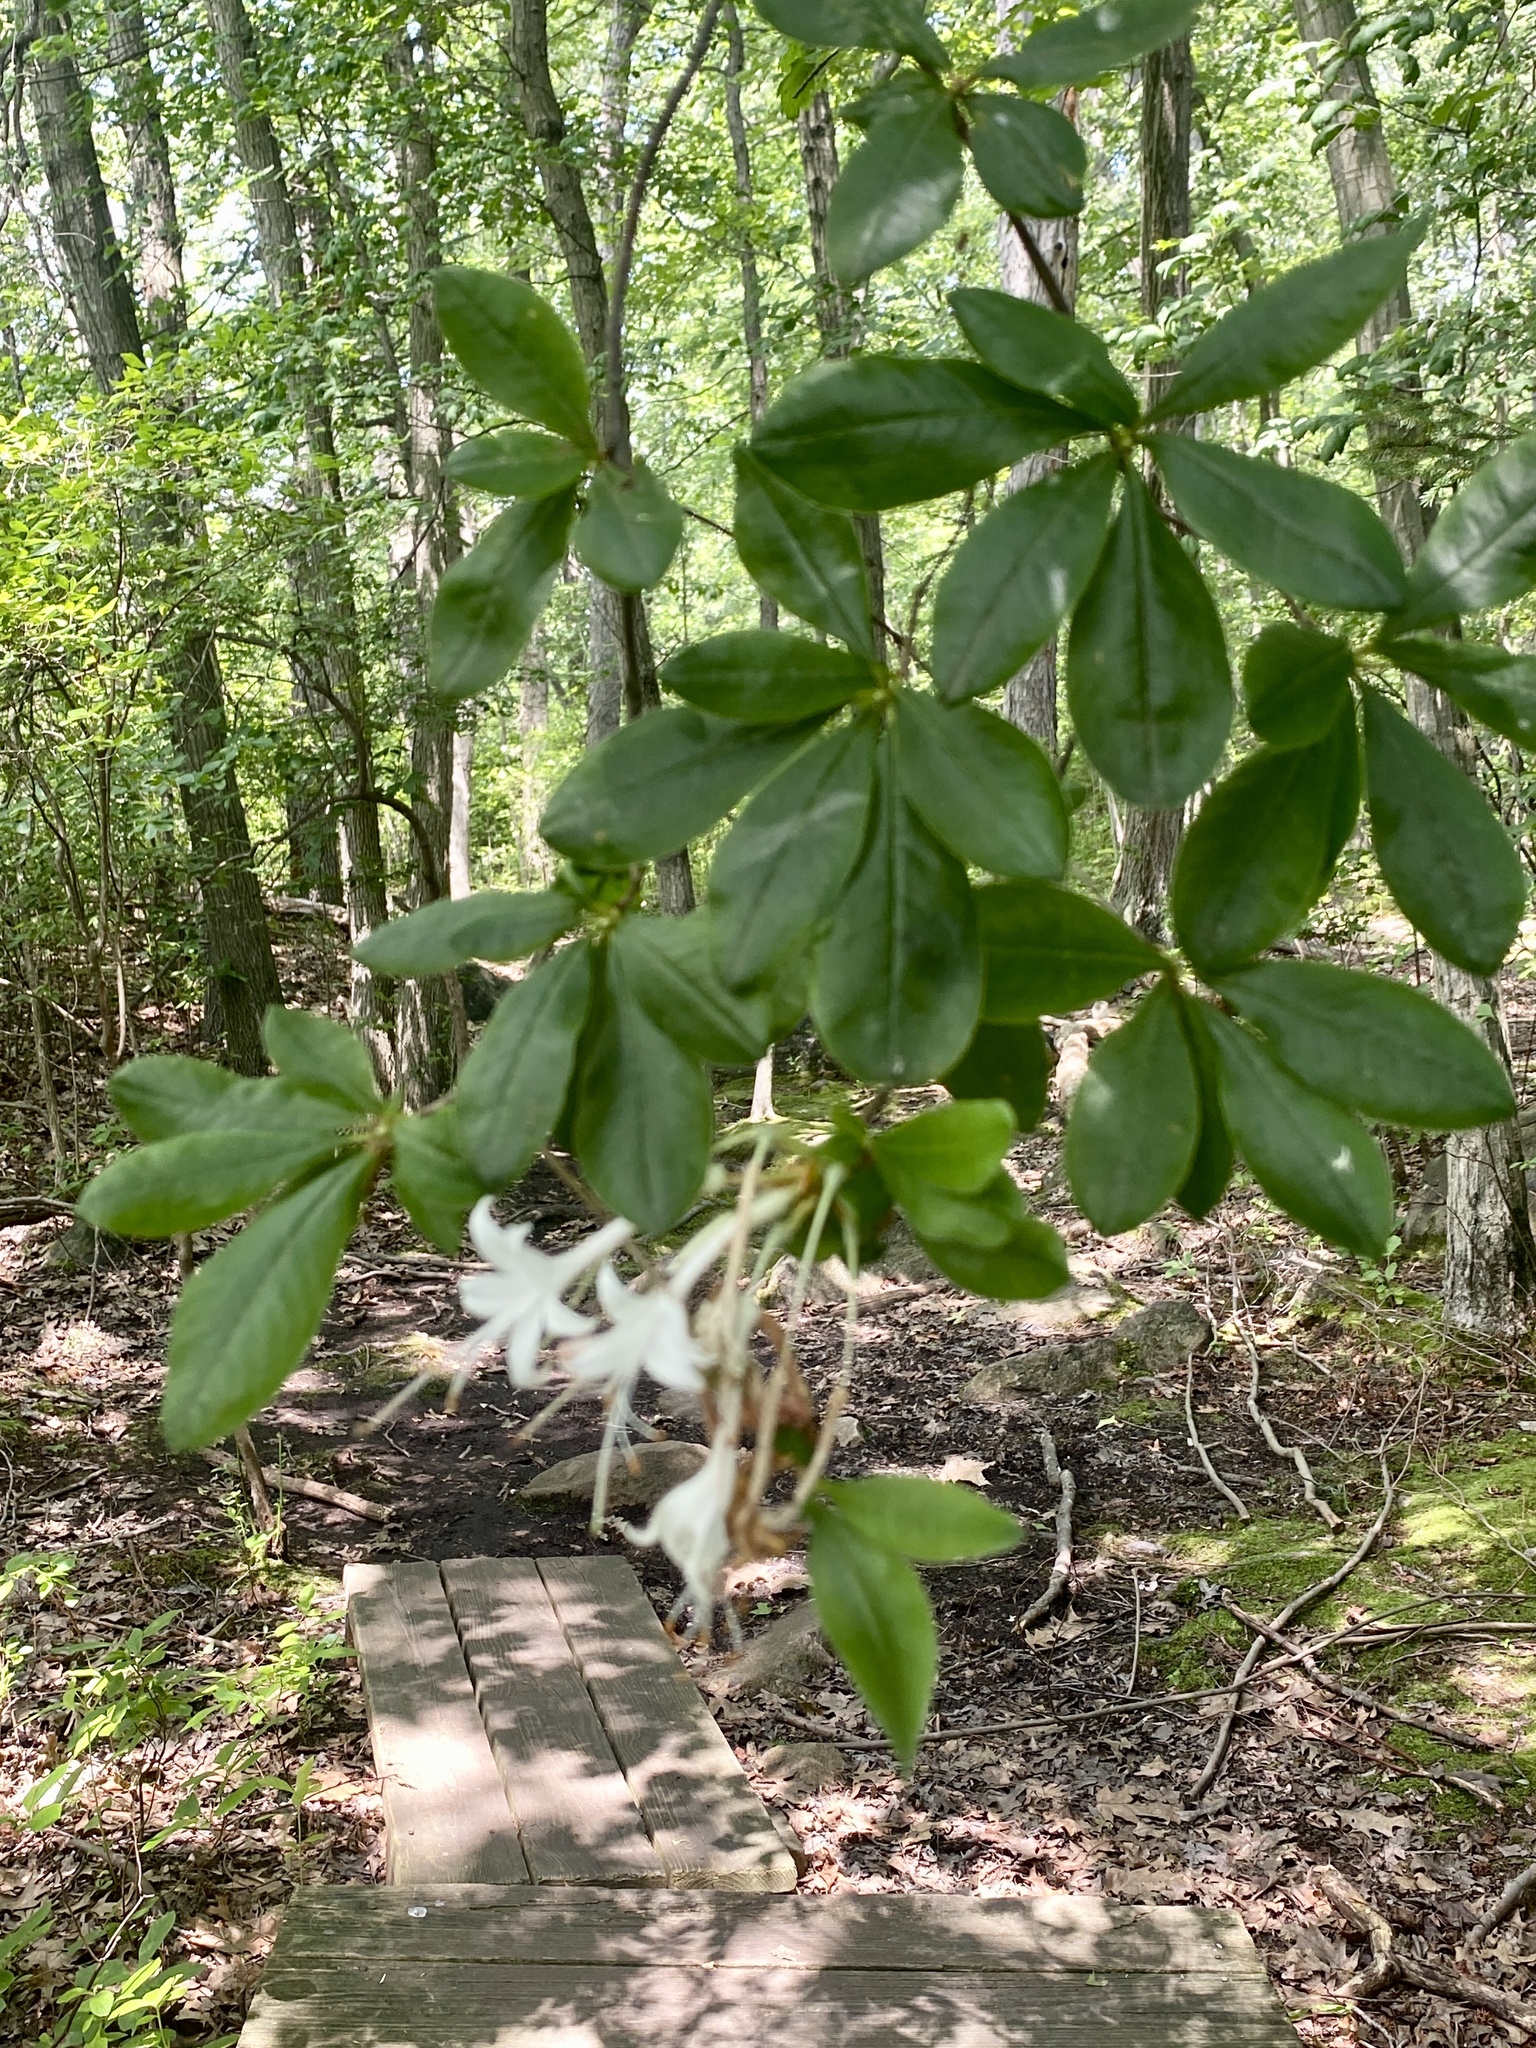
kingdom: Plantae
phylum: Tracheophyta
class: Magnoliopsida
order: Ericales
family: Ericaceae
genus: Rhododendron
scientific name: Rhododendron viscosum
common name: Clammy azalea
